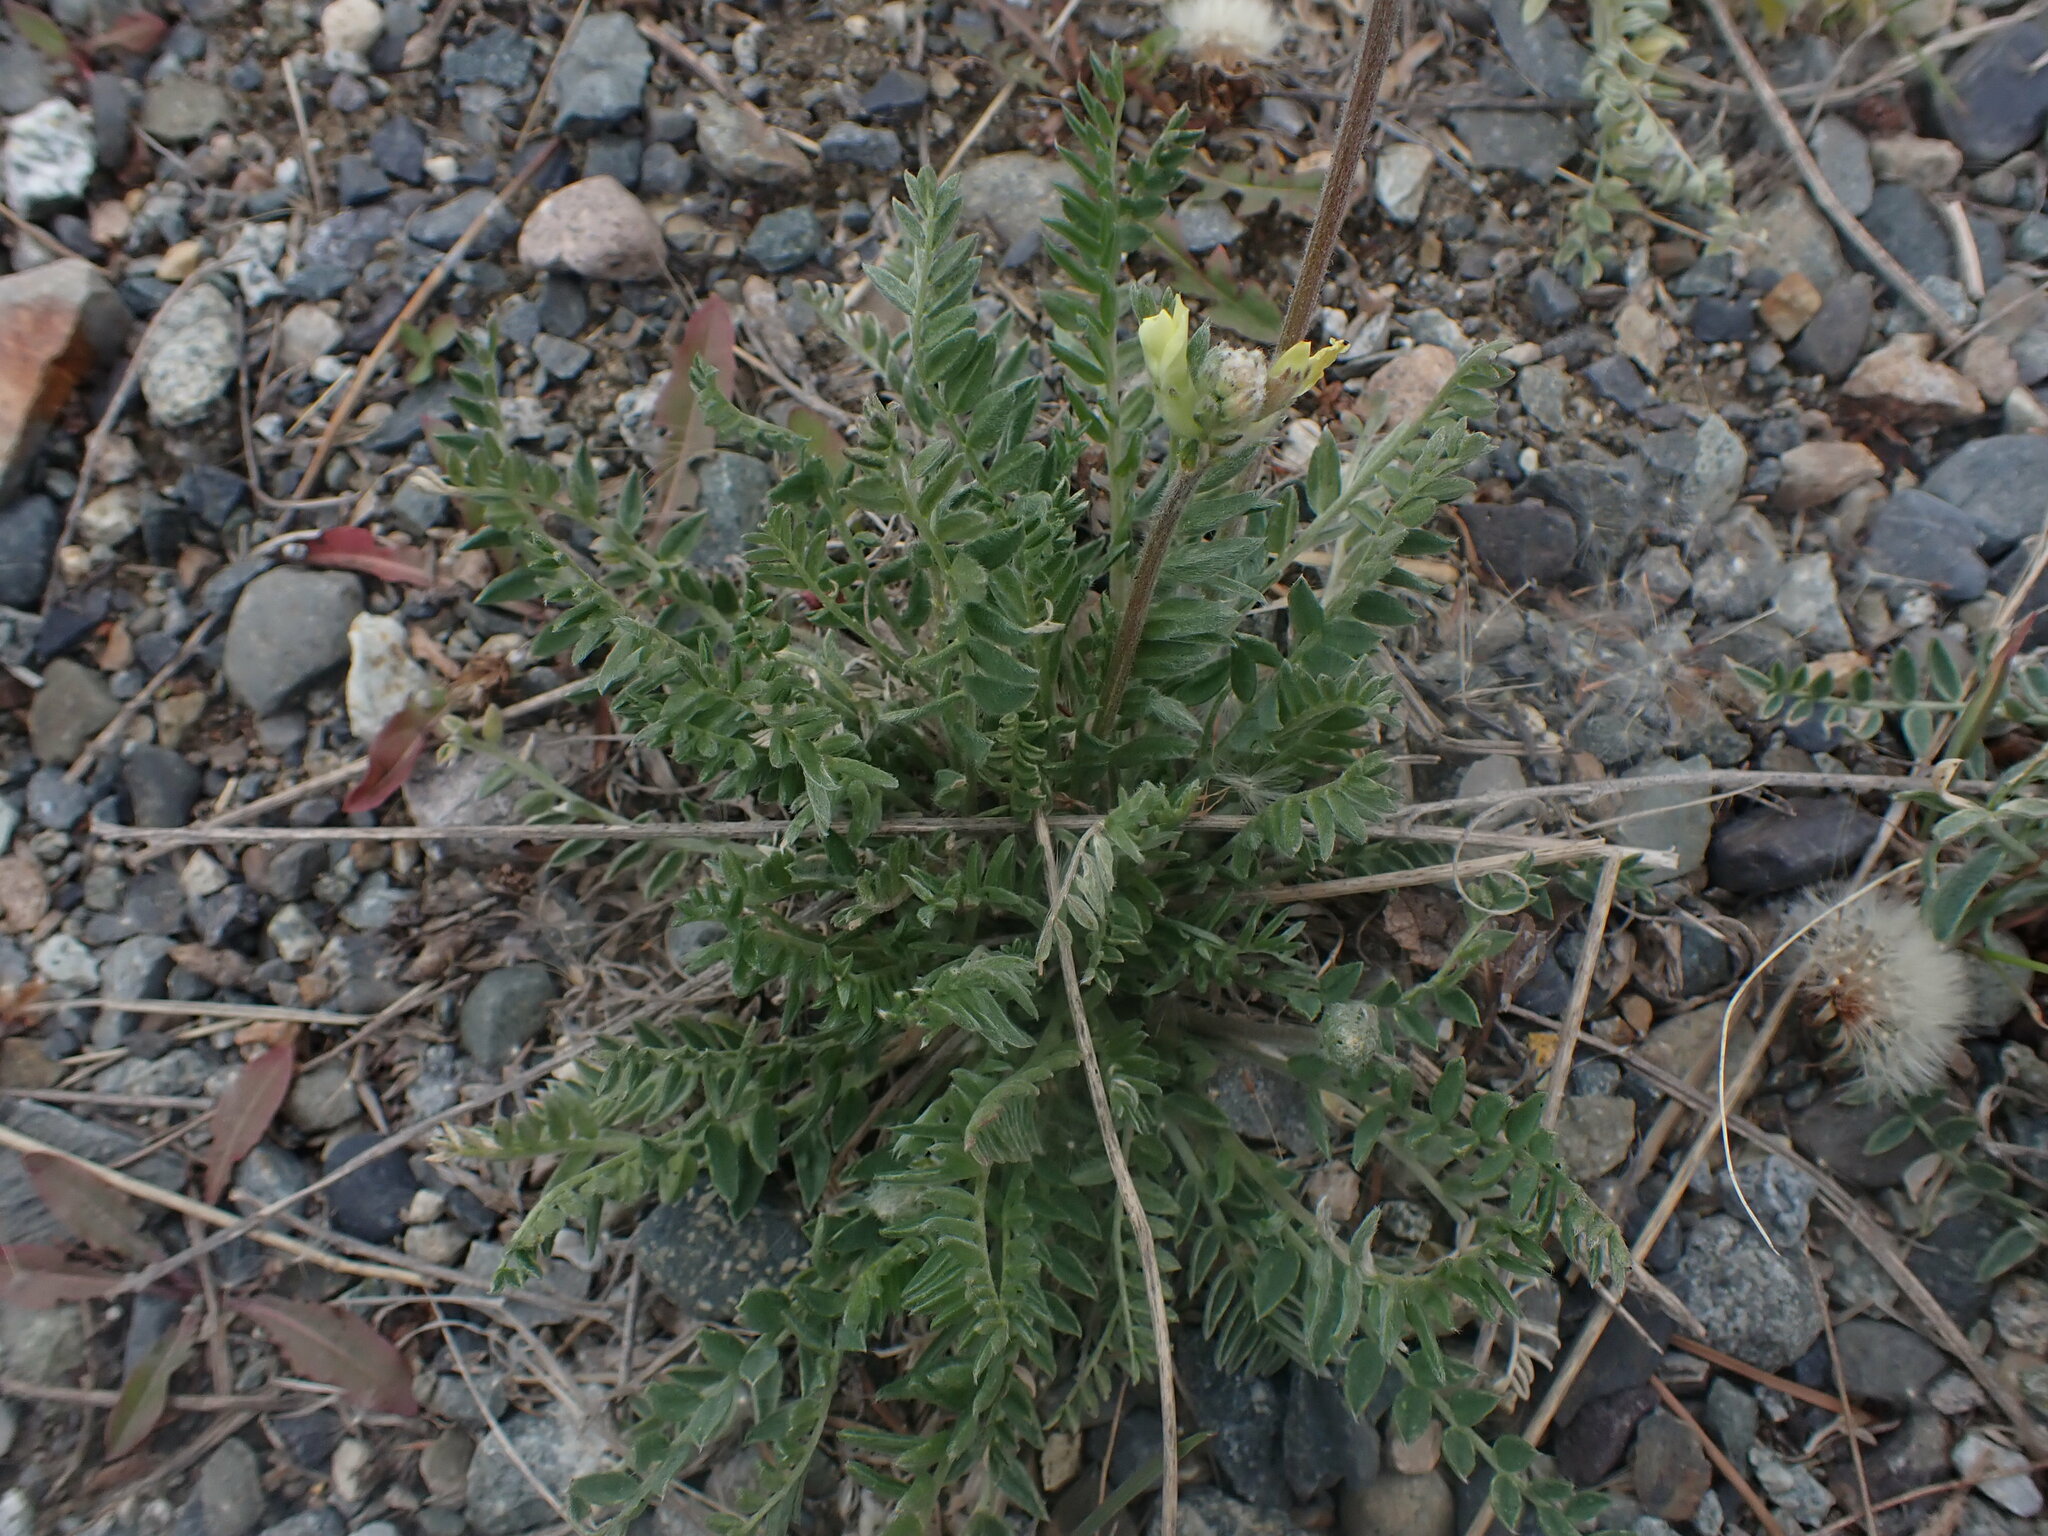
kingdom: Plantae
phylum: Tracheophyta
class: Magnoliopsida
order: Fabales
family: Fabaceae
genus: Oxytropis
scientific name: Oxytropis campestris
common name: Field locoweed
